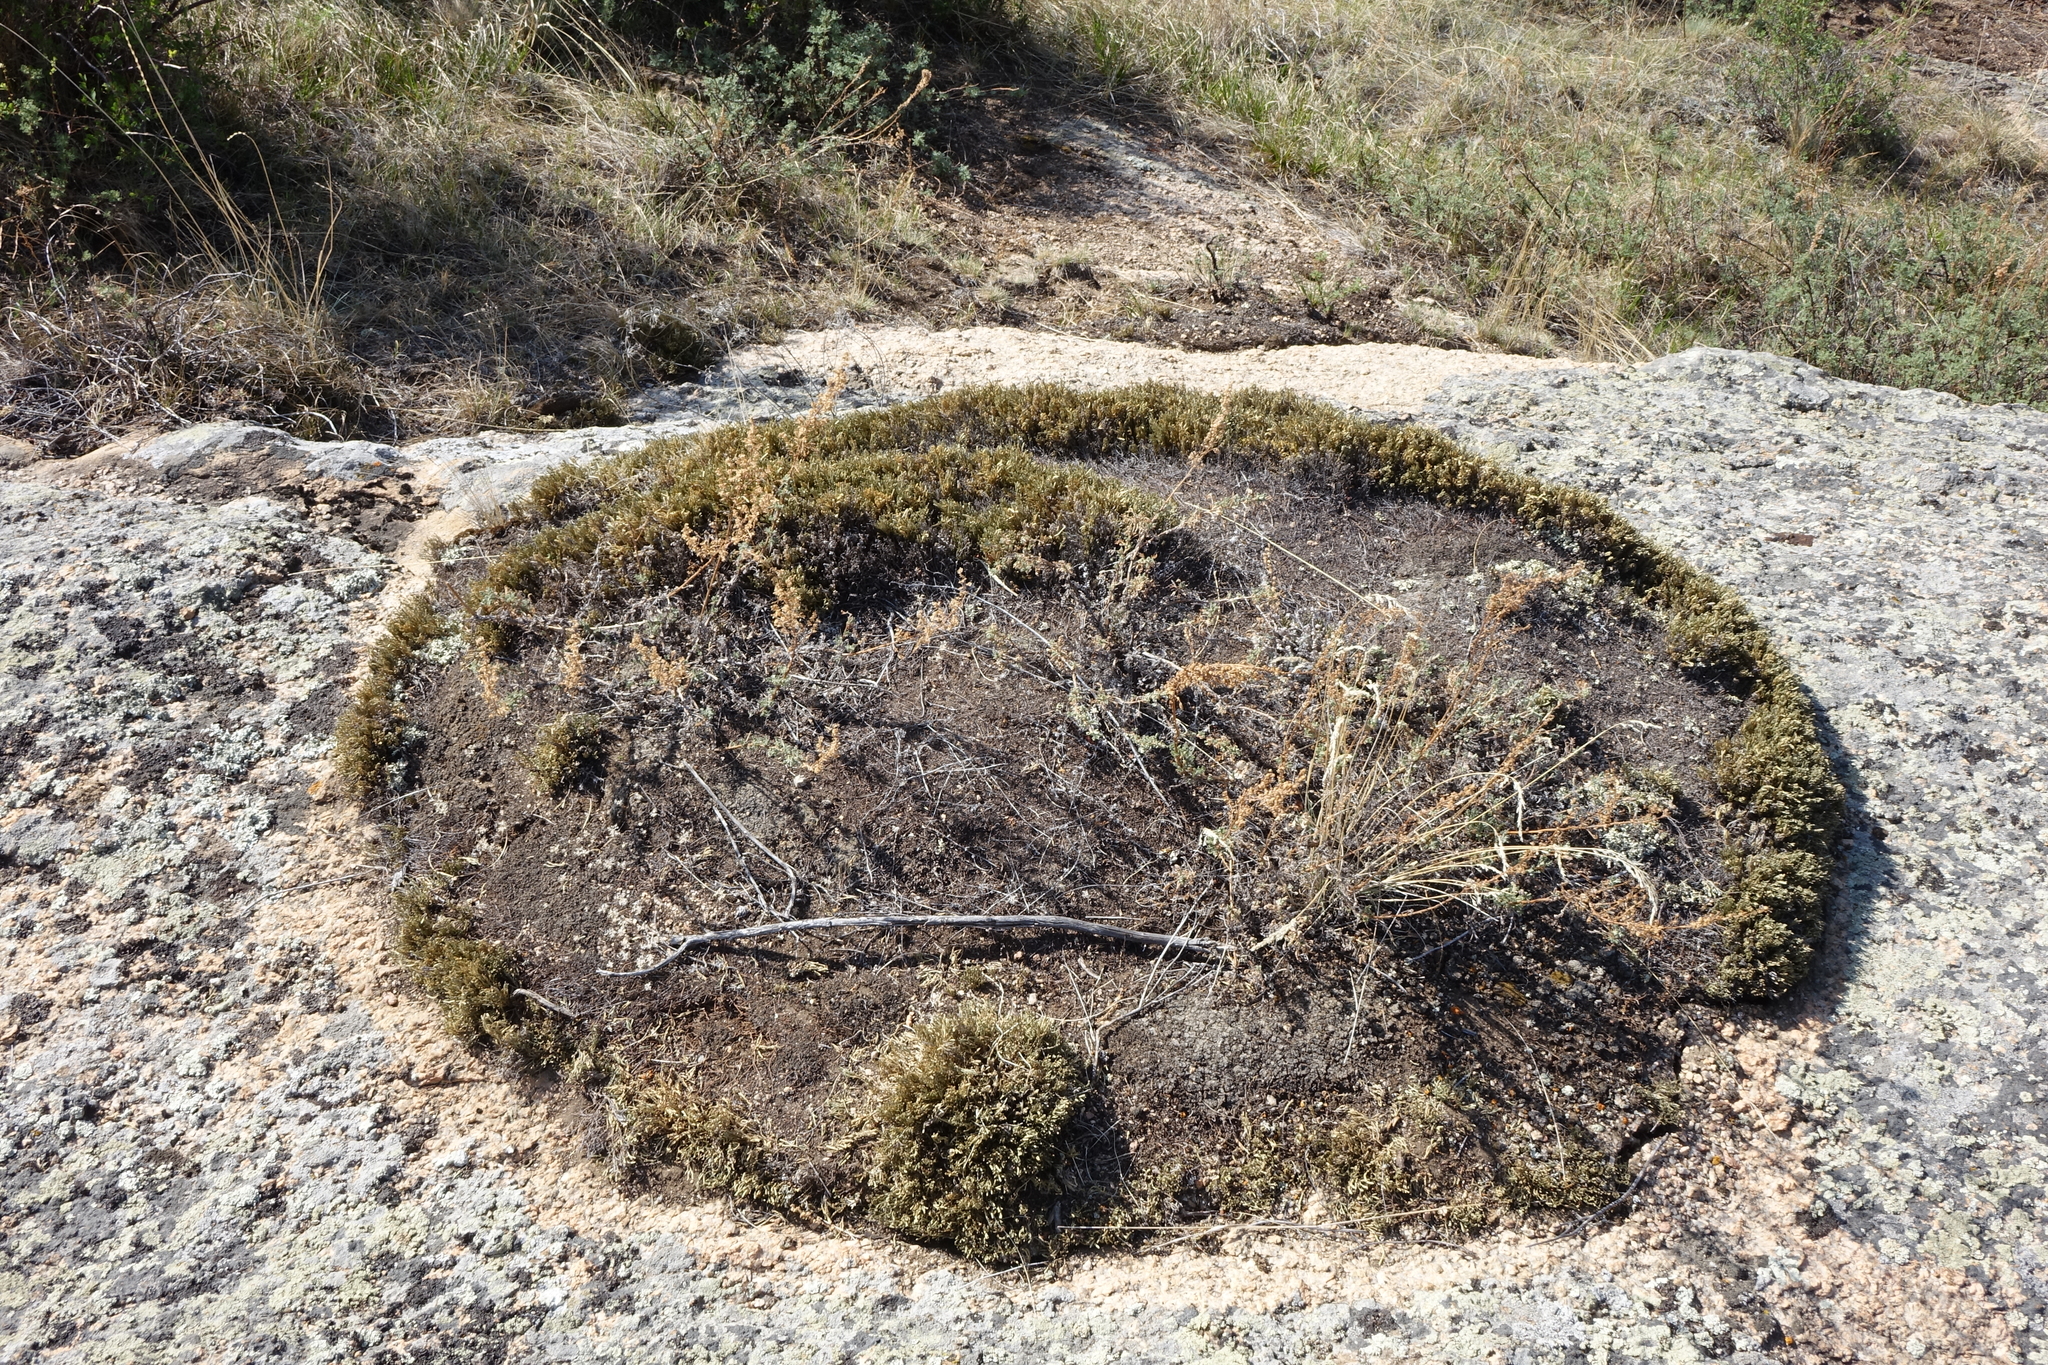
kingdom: Plantae
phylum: Tracheophyta
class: Lycopodiopsida
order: Selaginellales
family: Selaginellaceae
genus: Selaginella
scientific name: Selaginella sanguinolenta
